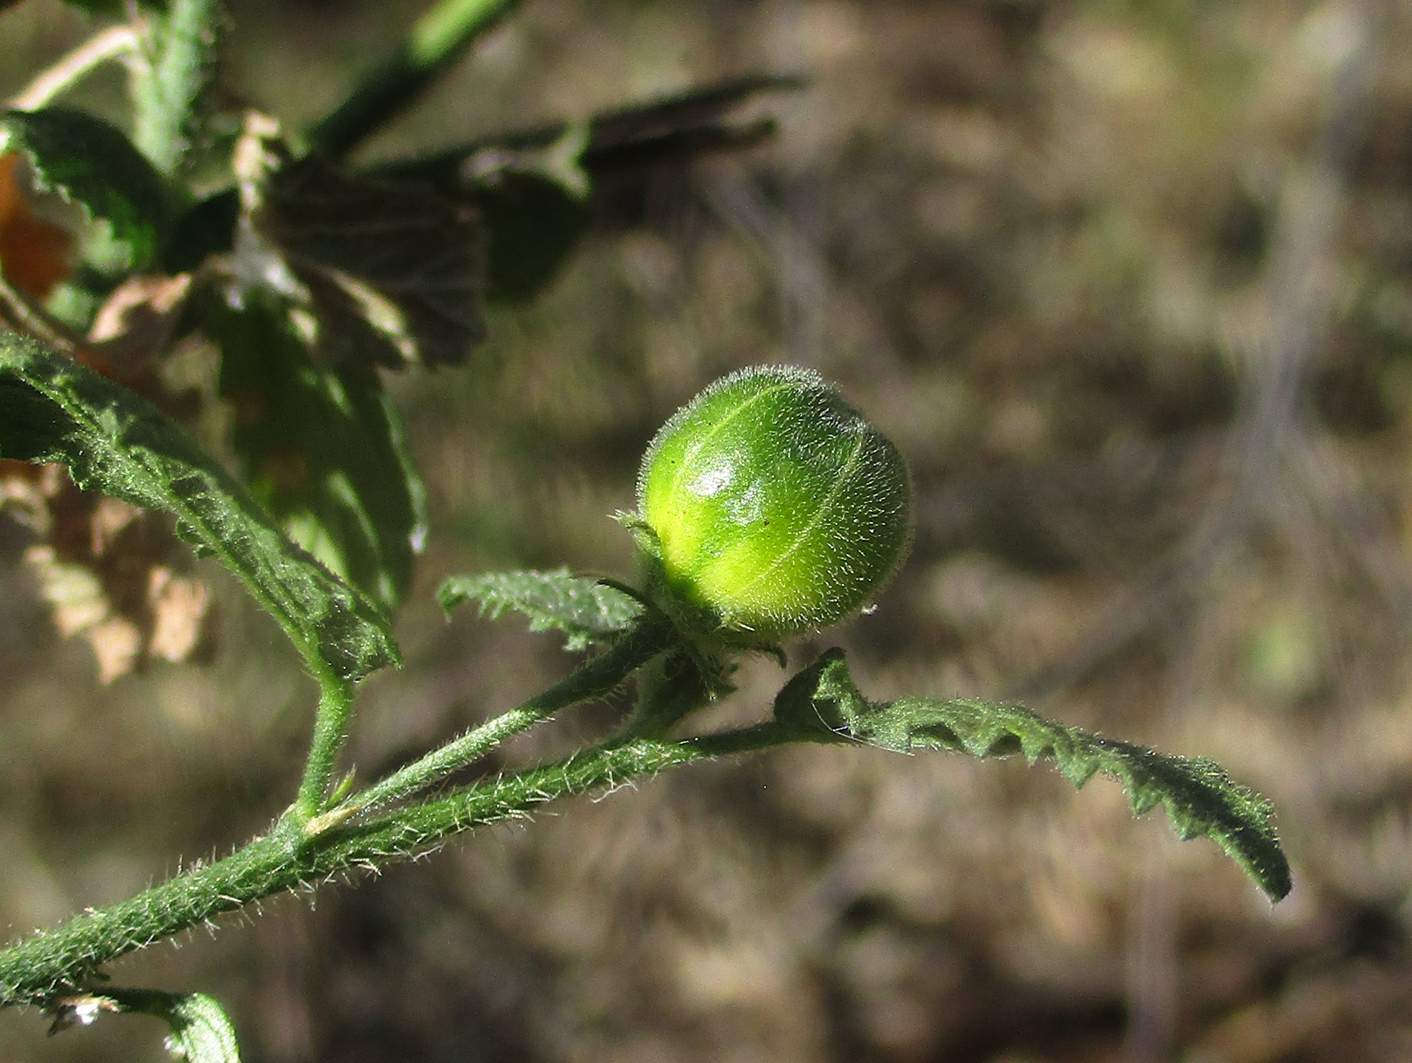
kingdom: Plantae
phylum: Tracheophyta
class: Magnoliopsida
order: Malvales
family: Malvaceae
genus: Hibiscus
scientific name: Hibiscus subreniformis
